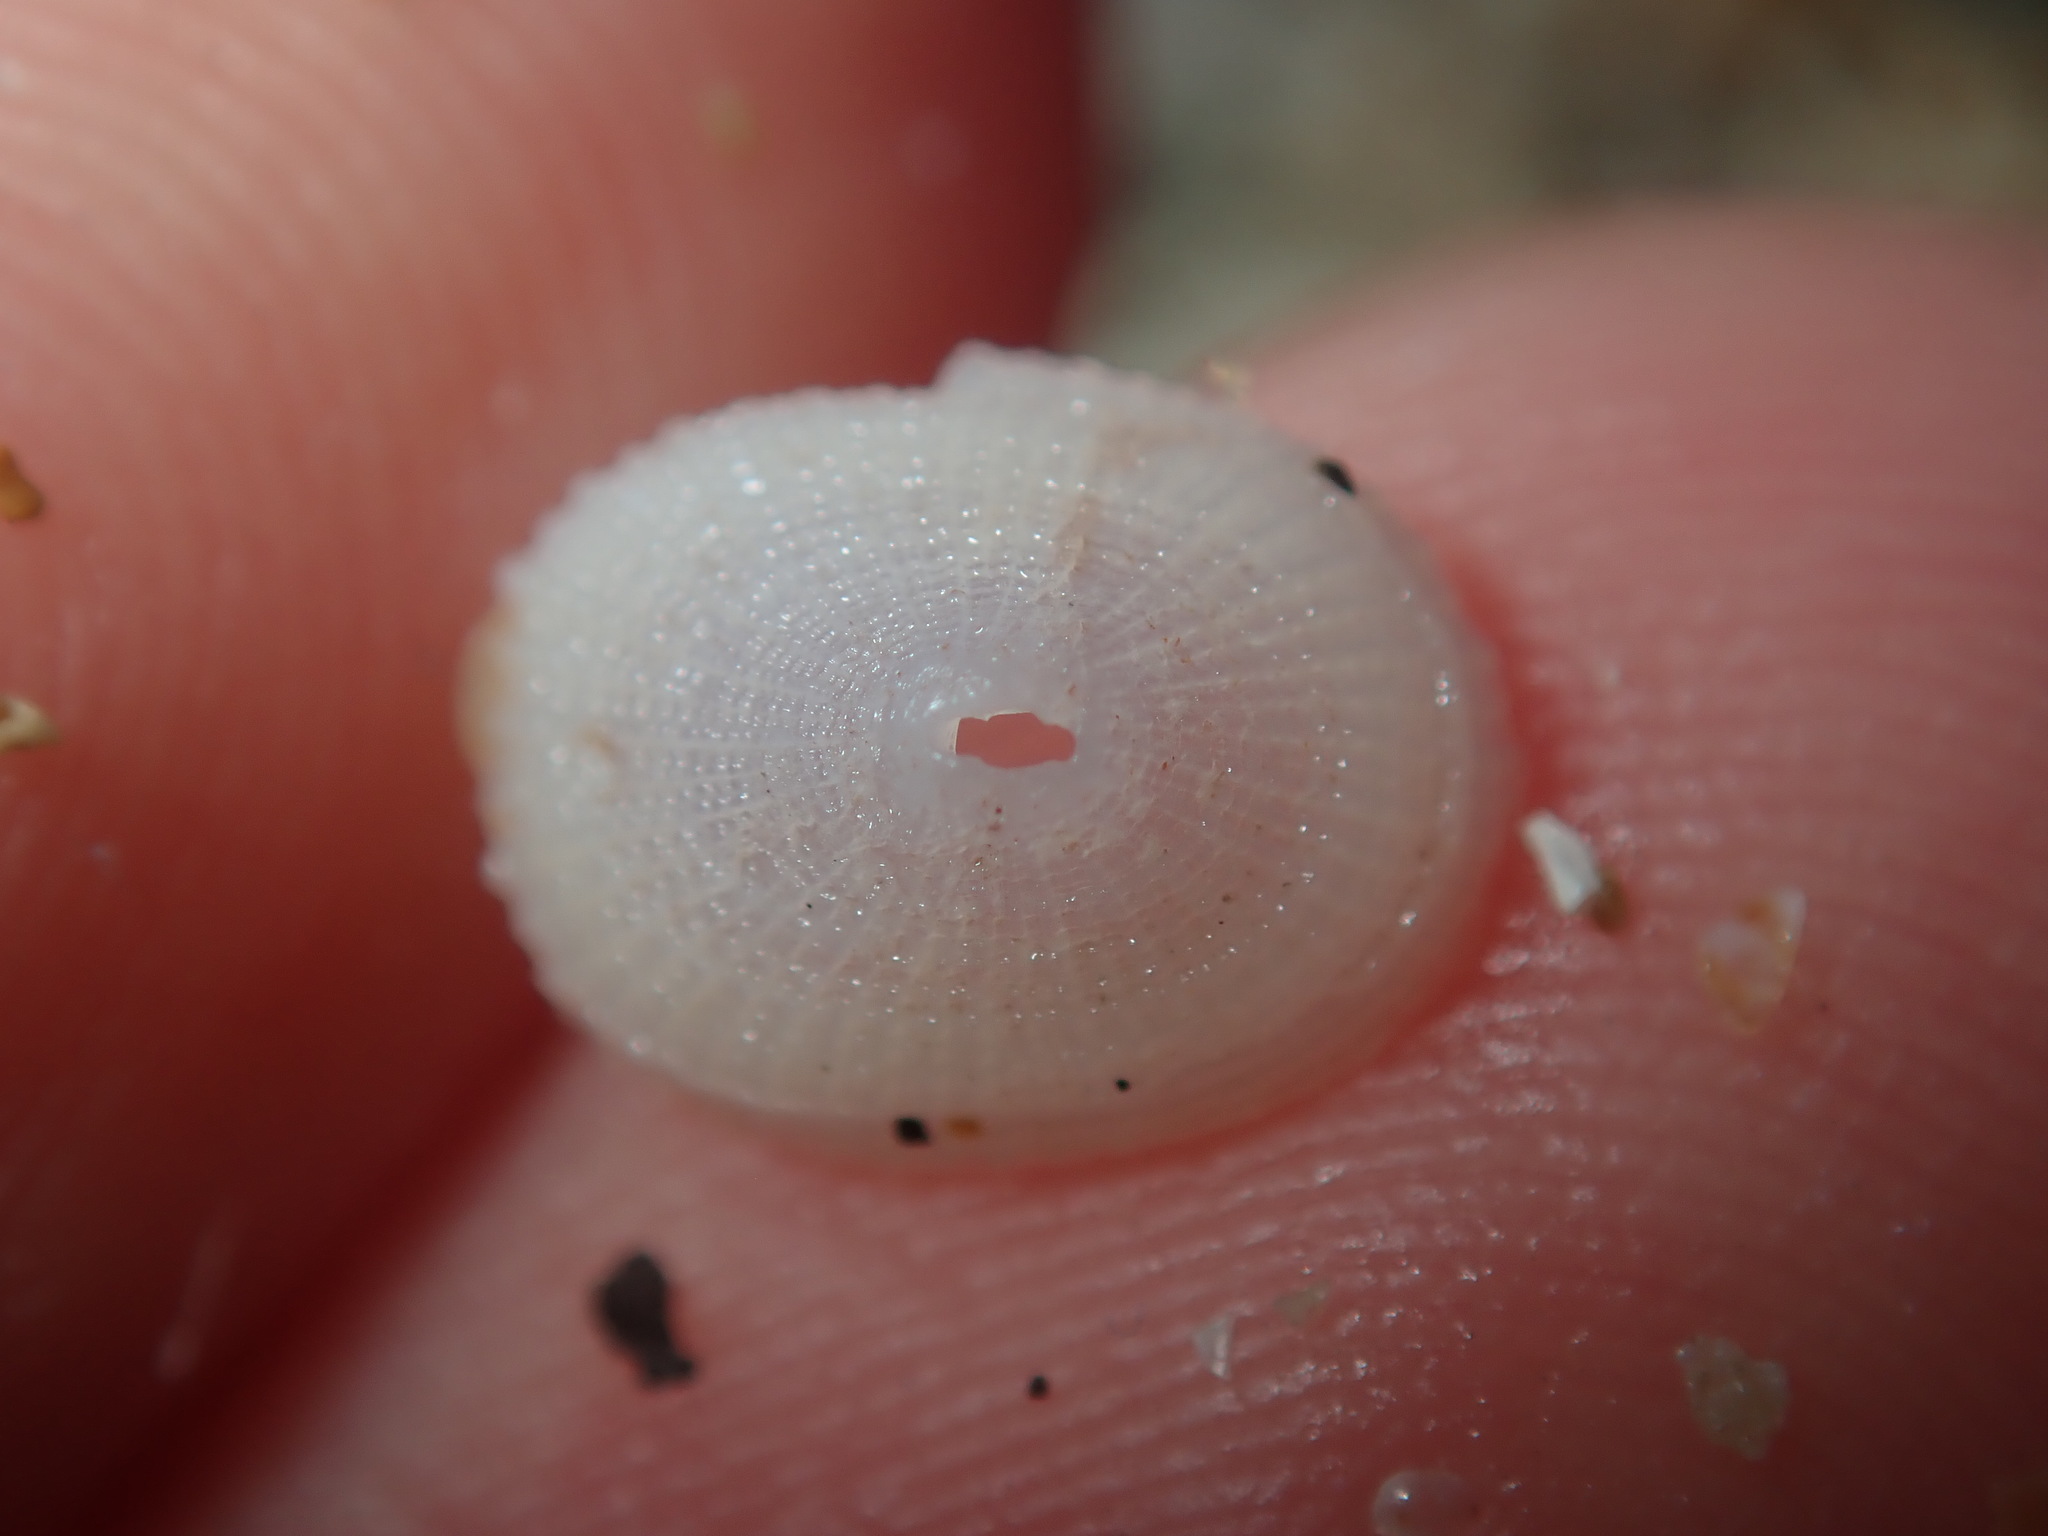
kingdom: Animalia
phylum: Mollusca
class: Gastropoda
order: Lepetellida
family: Fissurellidae
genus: Diodora
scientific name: Diodora ticaonica
